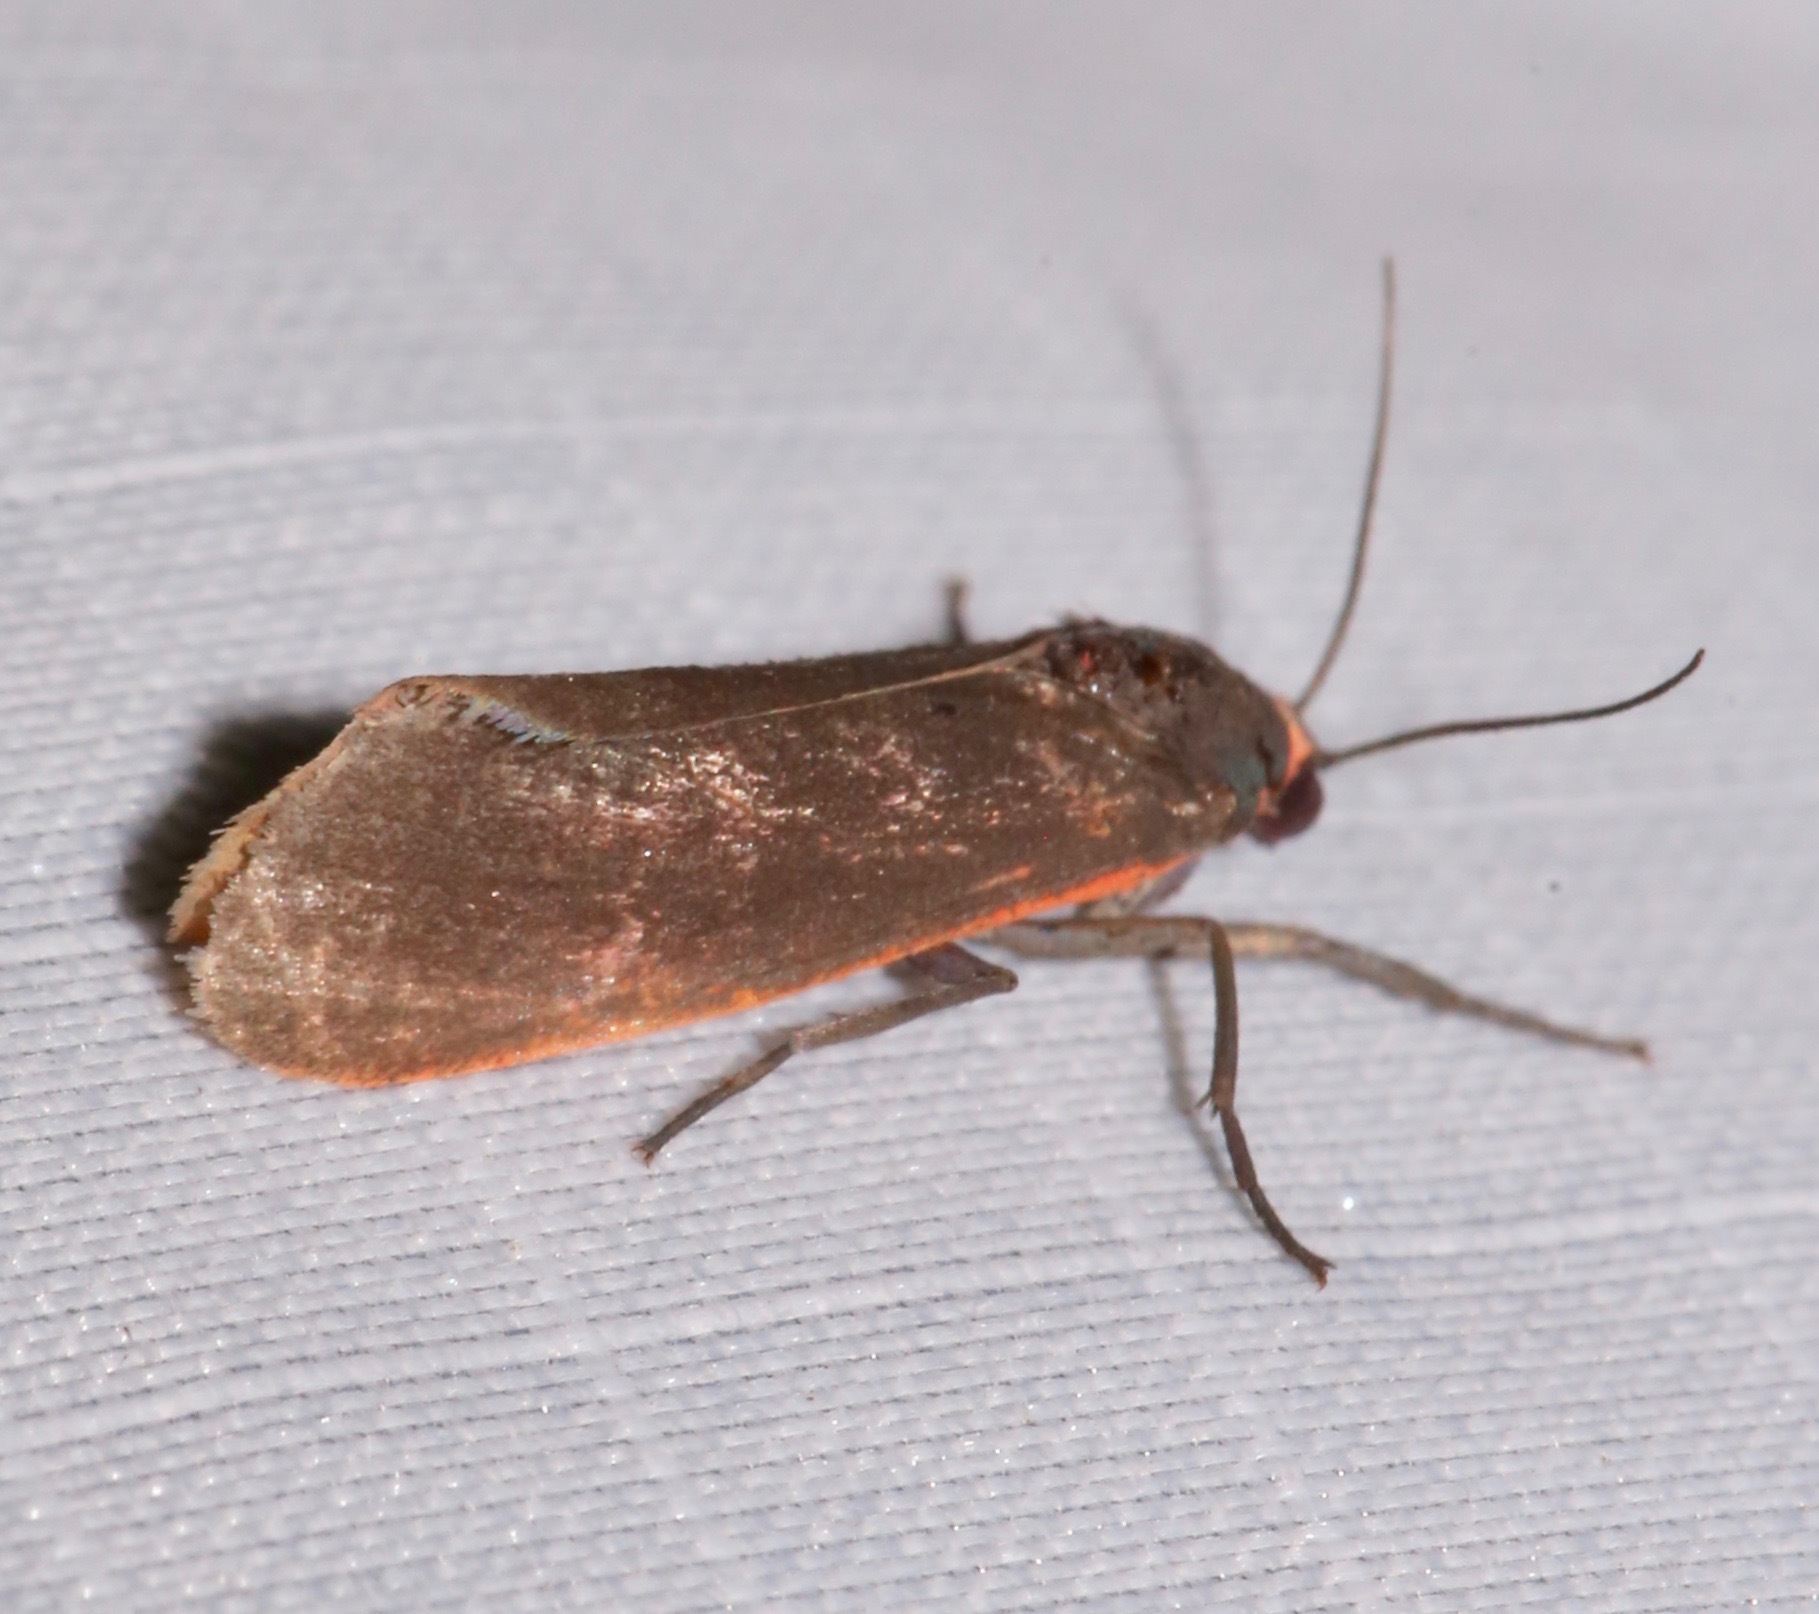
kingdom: Animalia
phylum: Arthropoda
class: Insecta
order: Lepidoptera
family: Erebidae
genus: Virbia
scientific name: Virbia laeta
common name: Joyful holomelina moth
